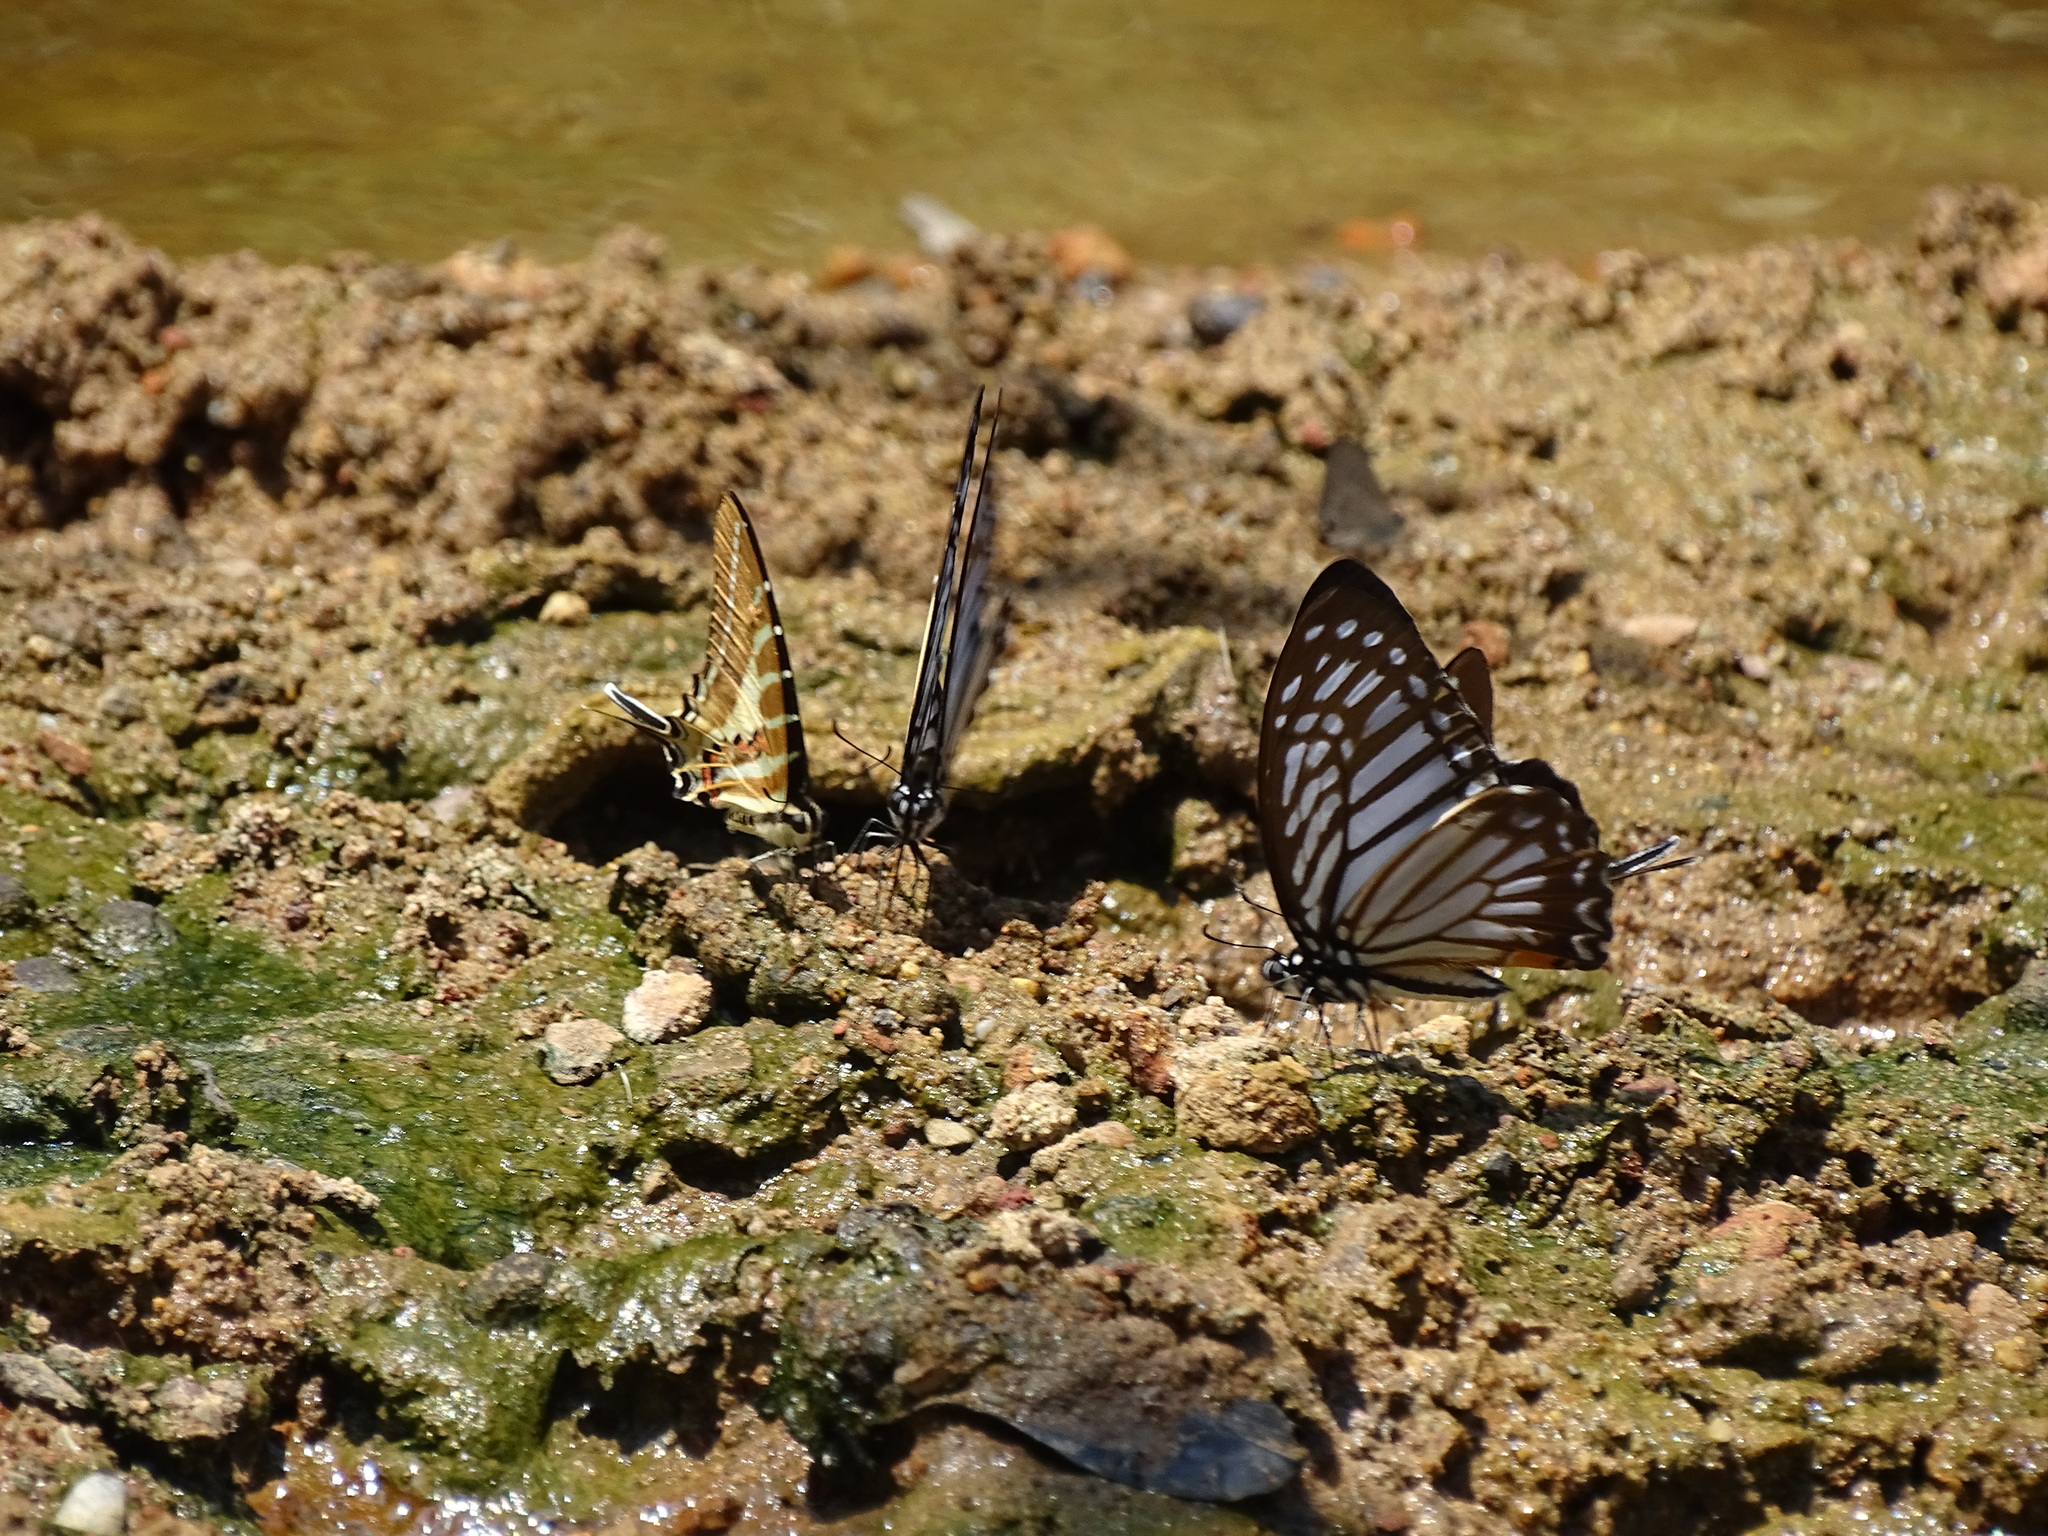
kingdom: Animalia
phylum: Arthropoda
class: Insecta
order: Lepidoptera
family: Papilionidae
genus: Graphium
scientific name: Graphium xenocles
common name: Great zebra
